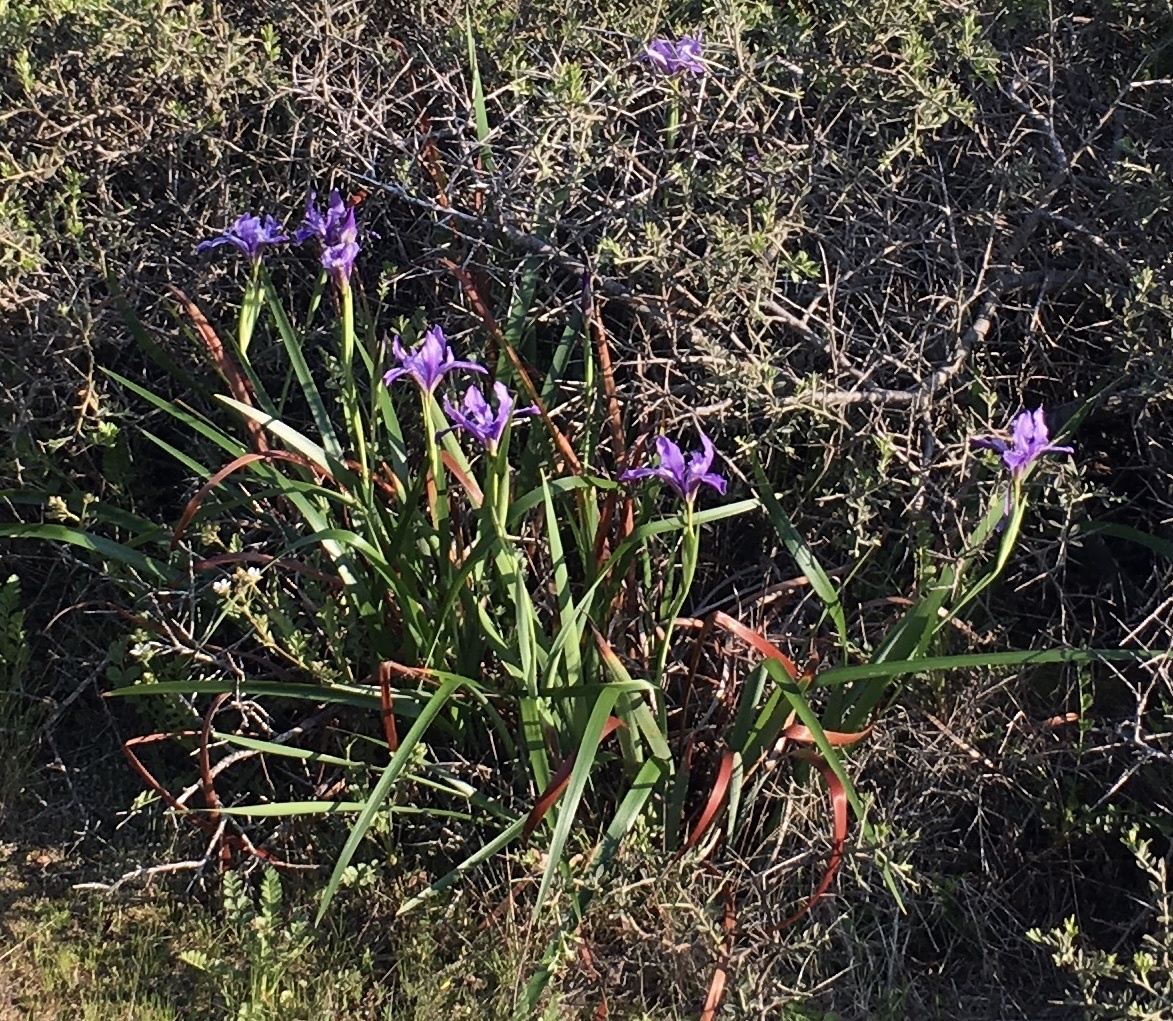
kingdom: Plantae
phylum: Tracheophyta
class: Liliopsida
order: Asparagales
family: Iridaceae
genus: Iris
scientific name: Iris douglasiana
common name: Marin iris
